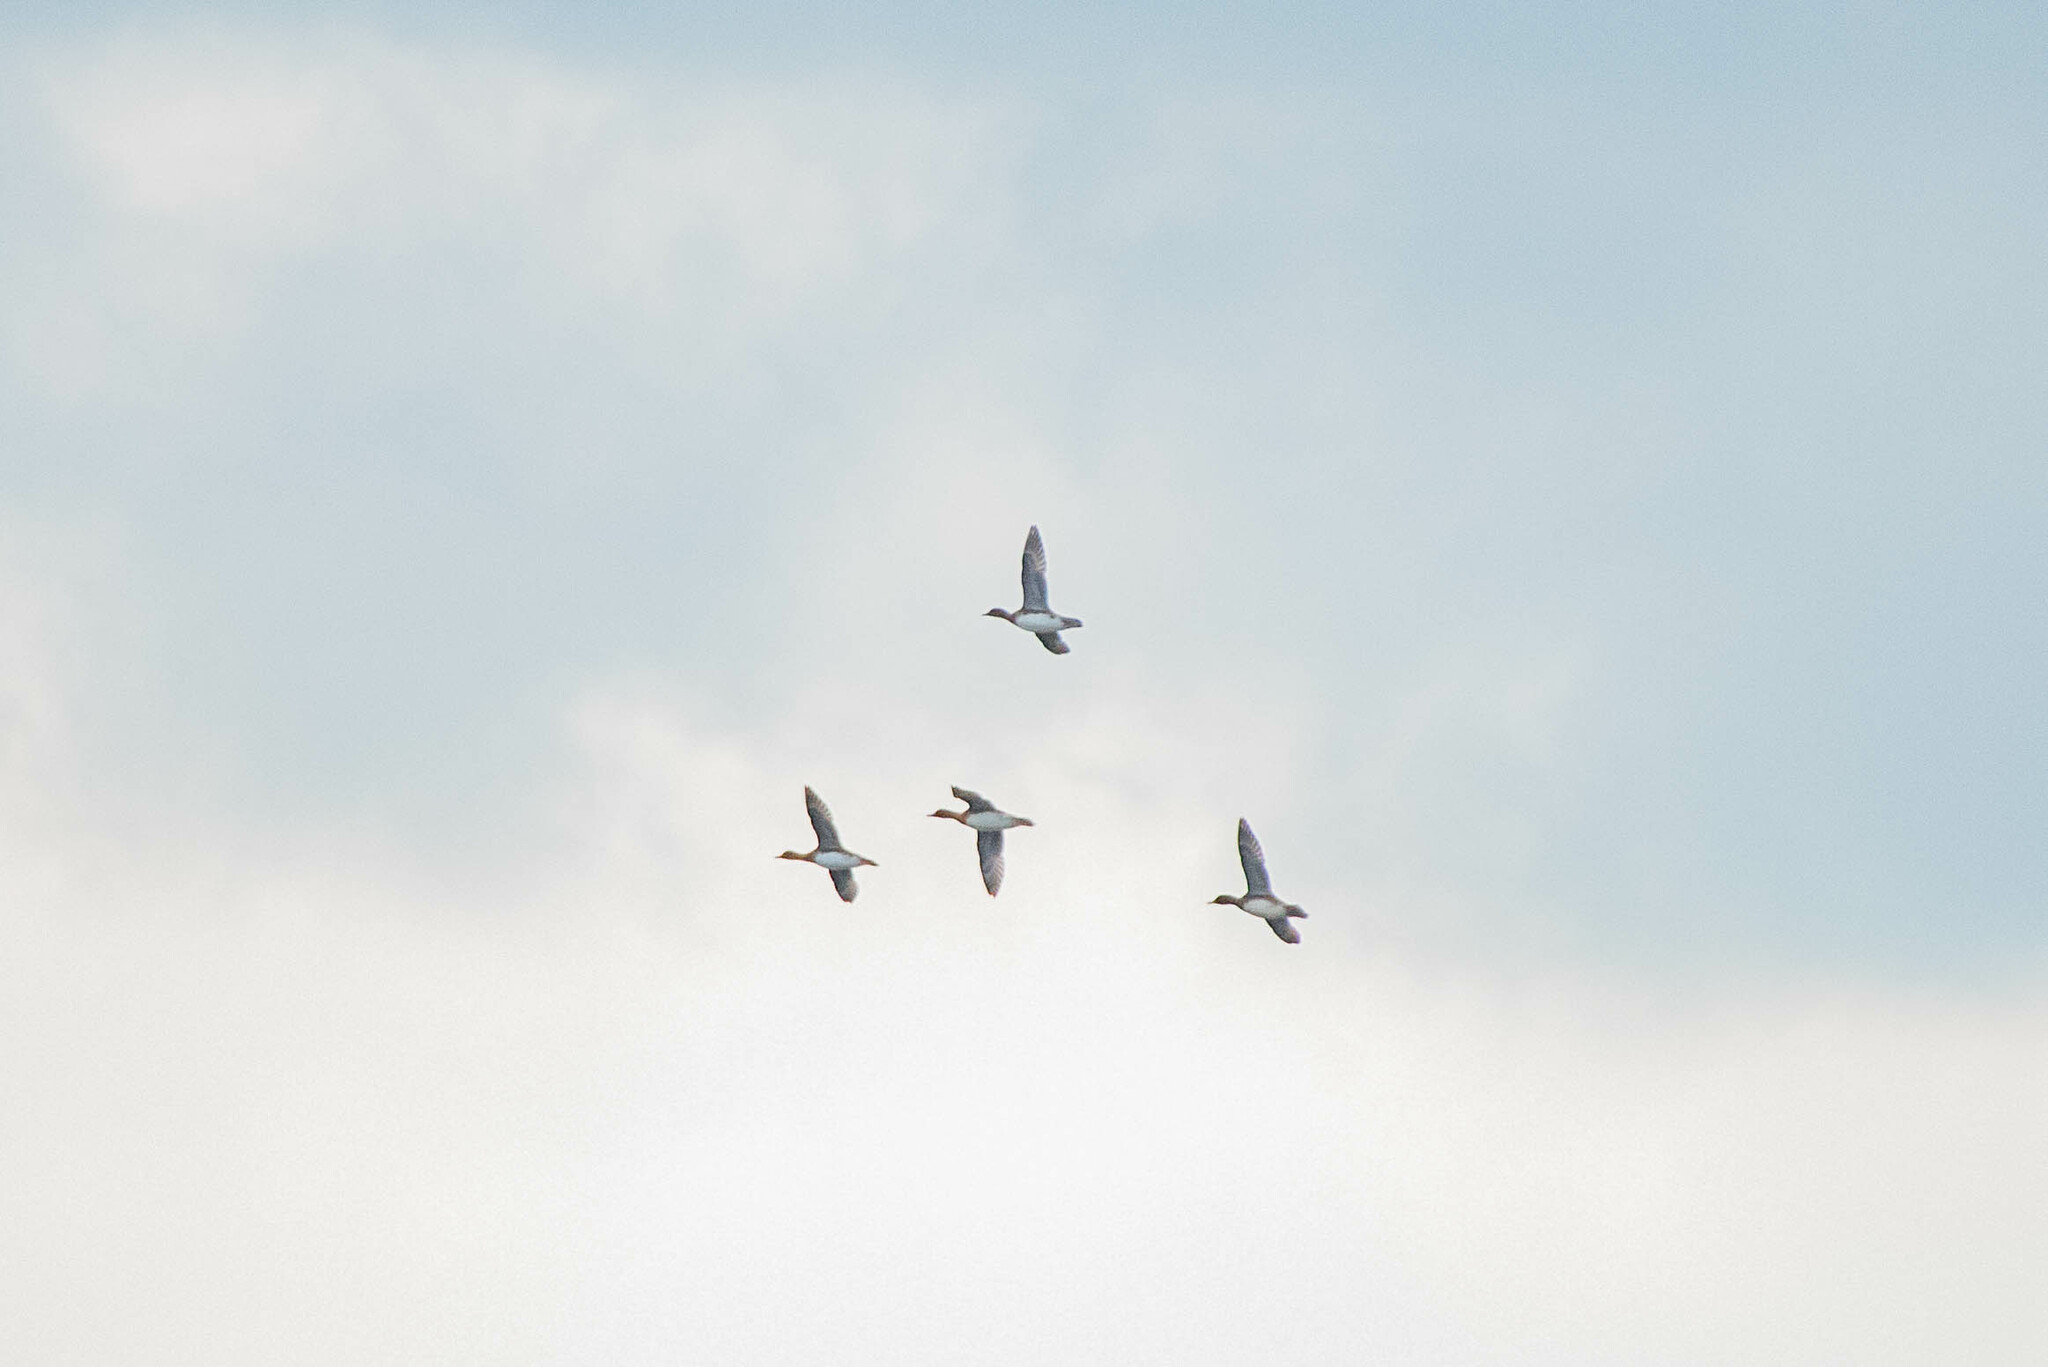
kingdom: Animalia
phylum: Chordata
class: Aves
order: Anseriformes
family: Anatidae
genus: Mareca
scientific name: Mareca penelope
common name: Eurasian wigeon
